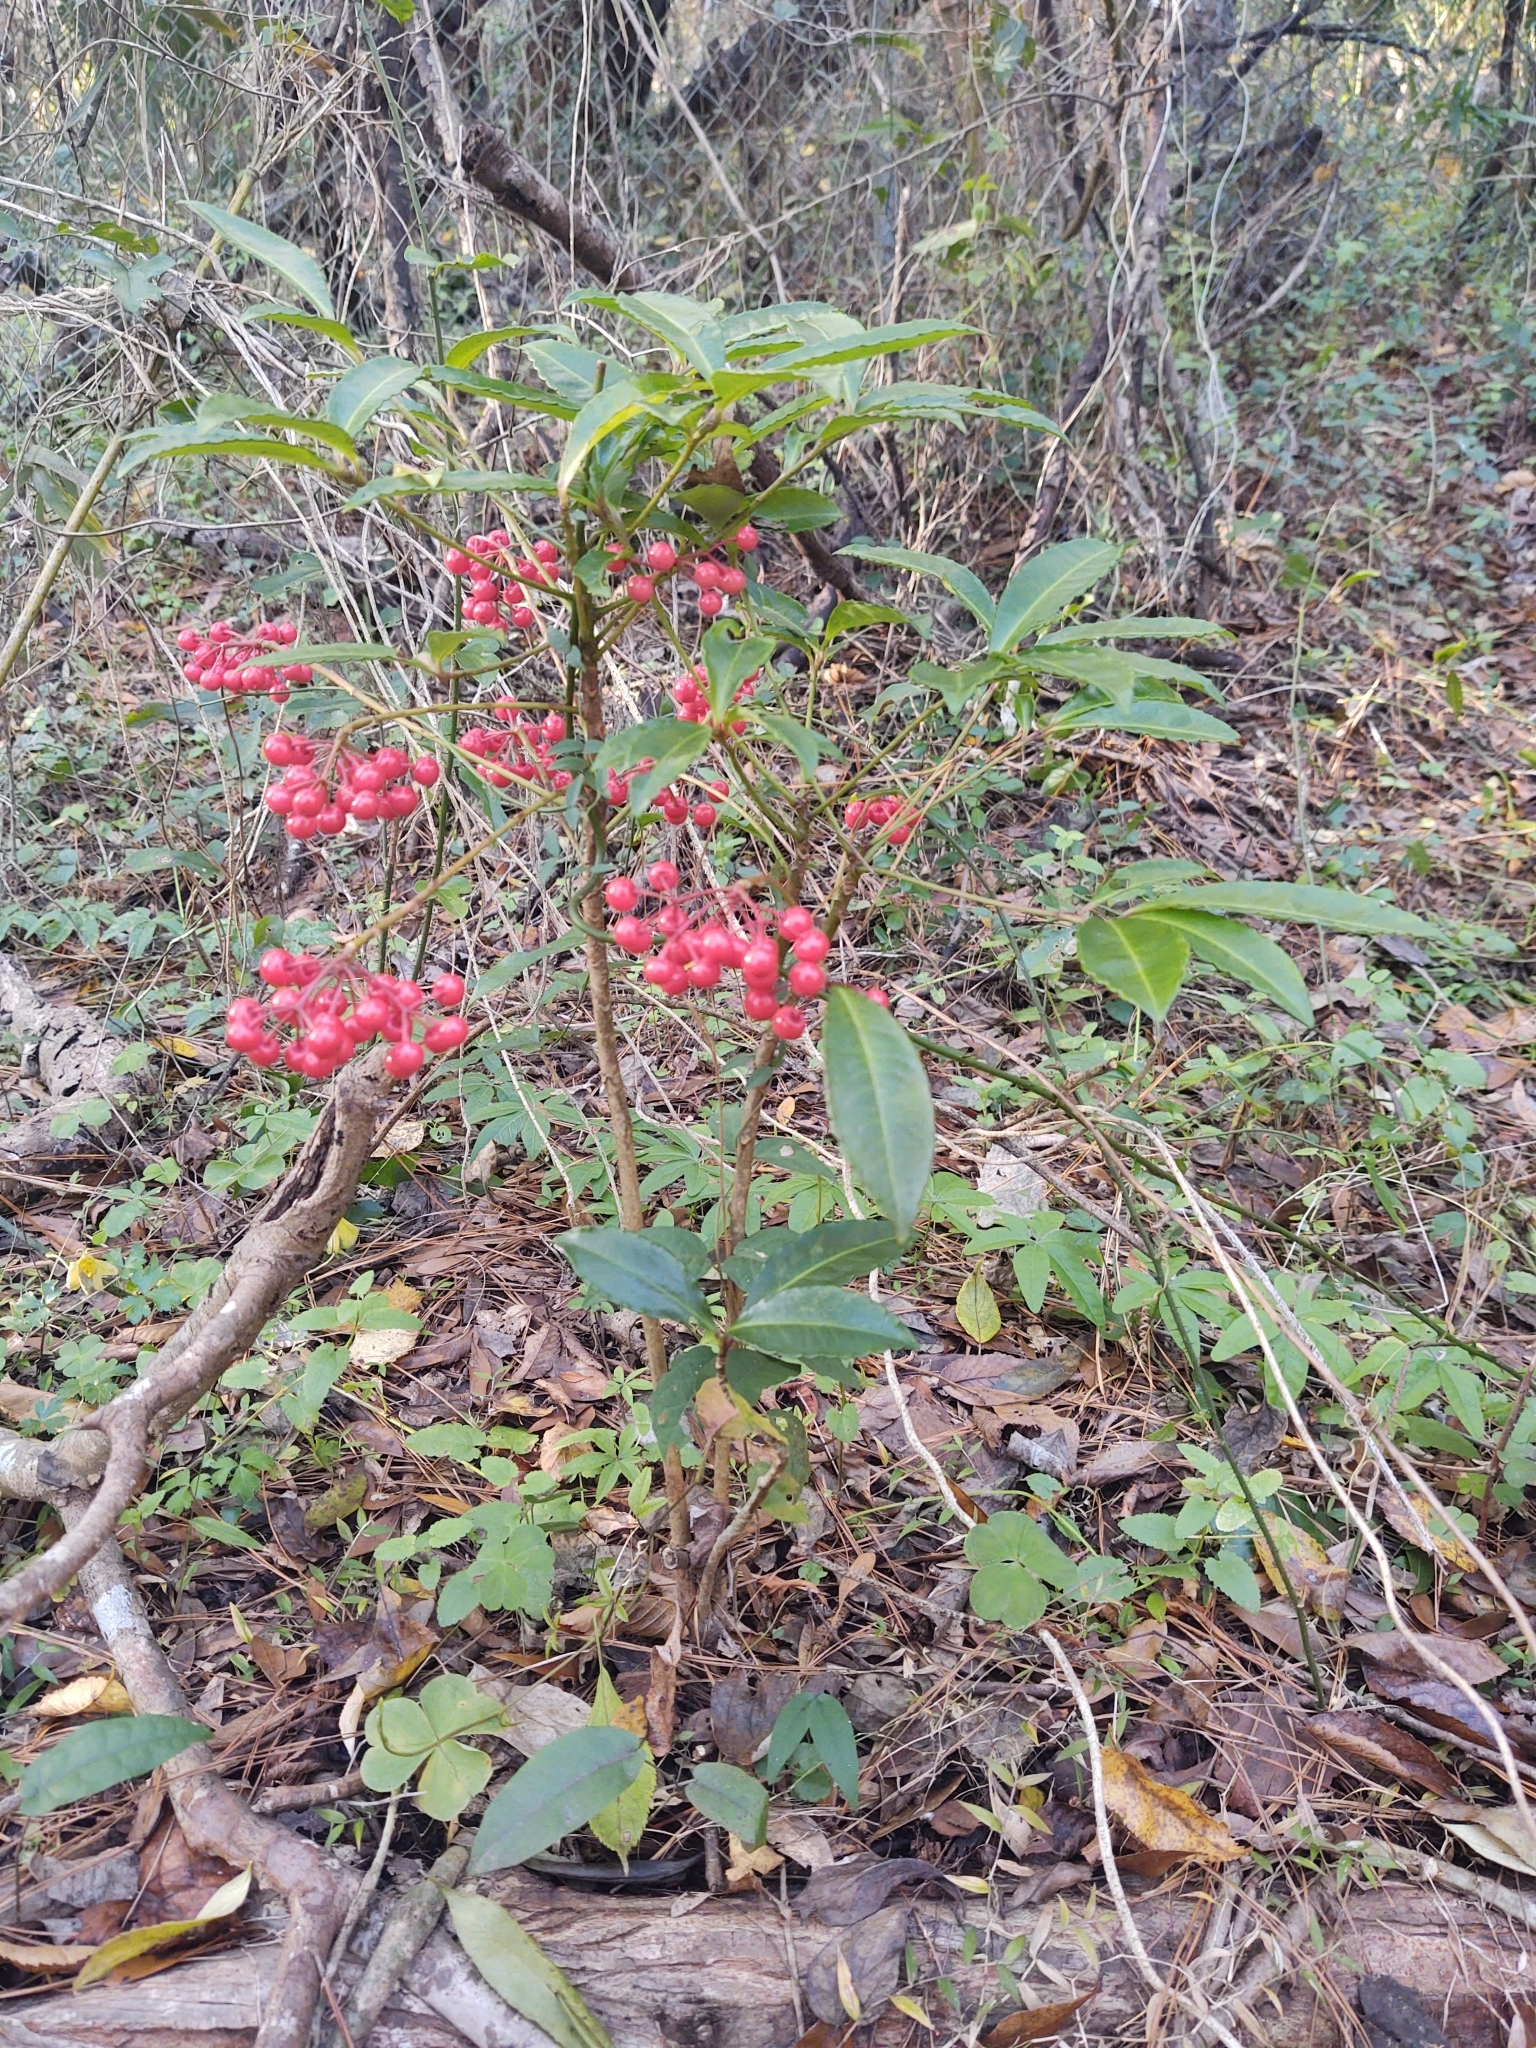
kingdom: Plantae
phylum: Tracheophyta
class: Magnoliopsida
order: Ericales
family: Primulaceae
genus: Ardisia
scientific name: Ardisia crenata
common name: Hen's eyes
